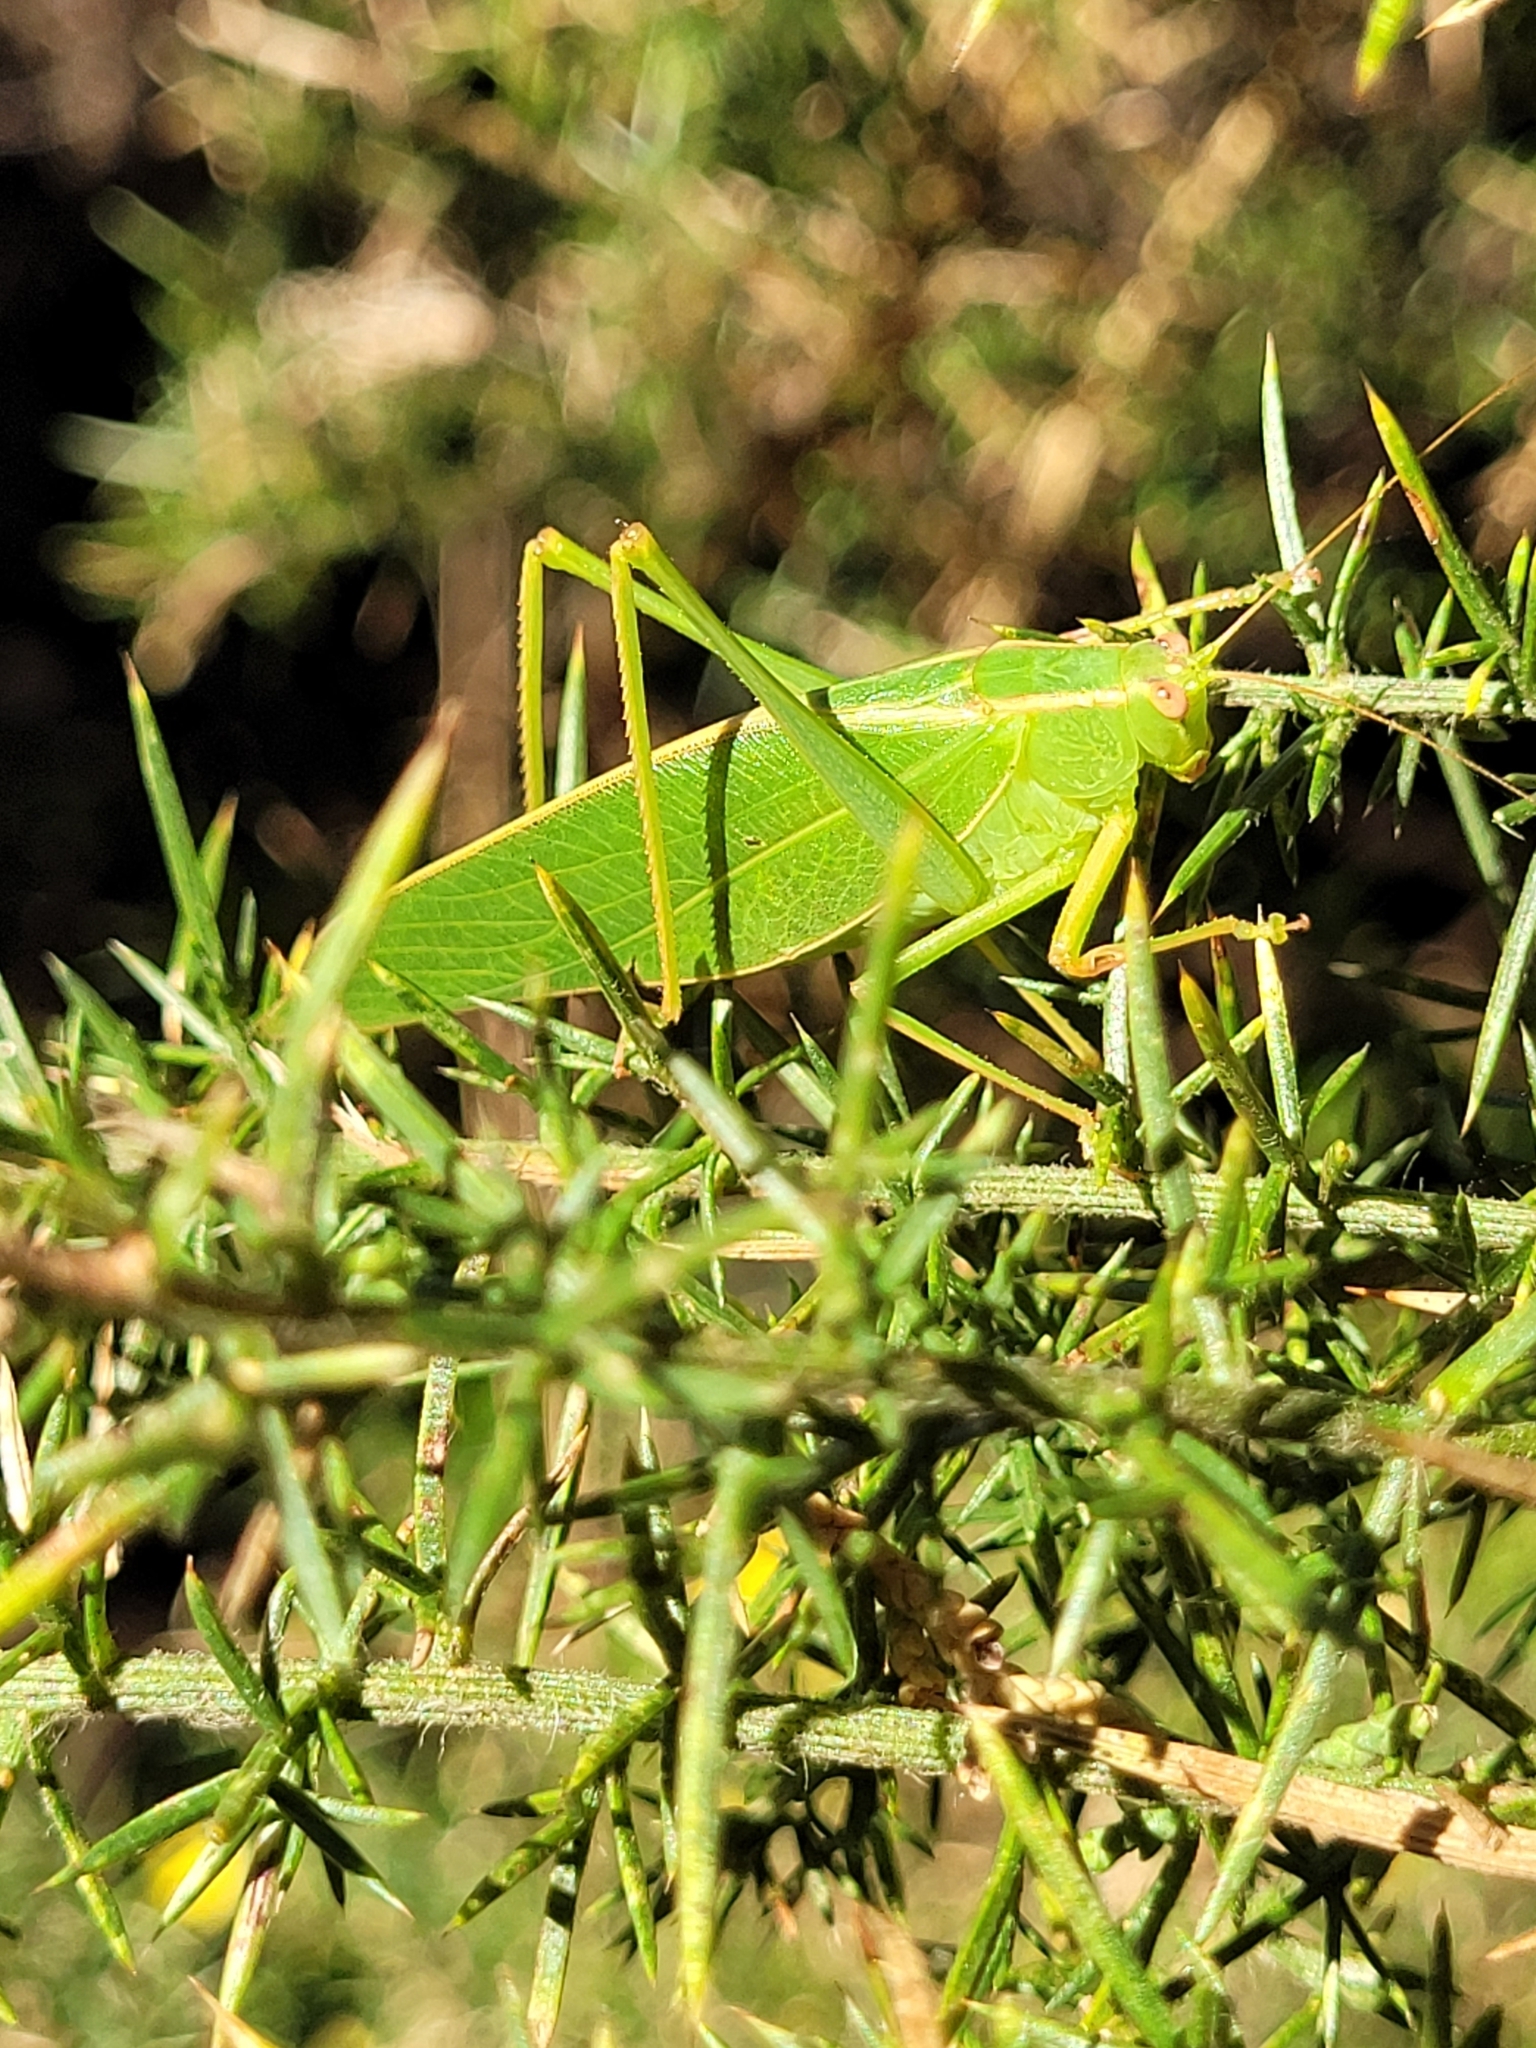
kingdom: Animalia
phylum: Arthropoda
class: Insecta
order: Orthoptera
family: Tettigoniidae
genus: Caedicia
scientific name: Caedicia simplex
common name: Common garden katydid
